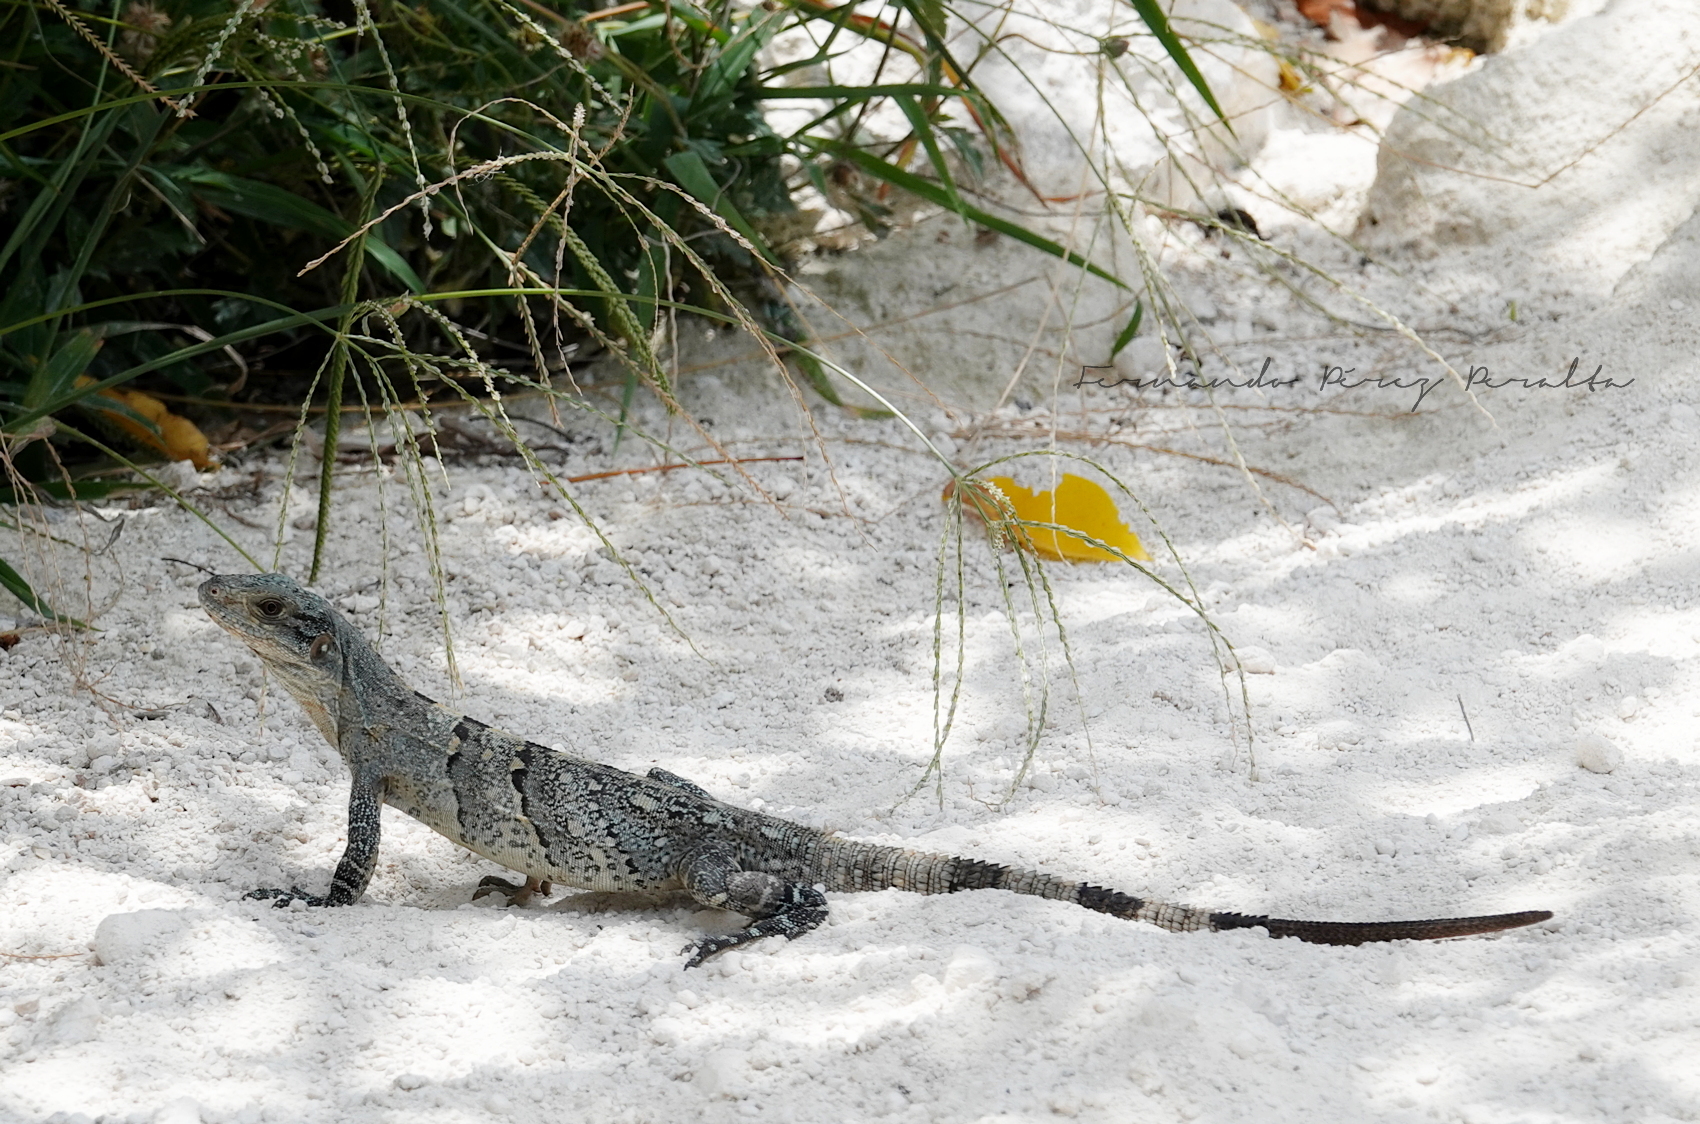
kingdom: Animalia
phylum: Chordata
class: Squamata
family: Iguanidae
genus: Ctenosaura
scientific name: Ctenosaura similis
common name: Black spiny-tailed iguana
